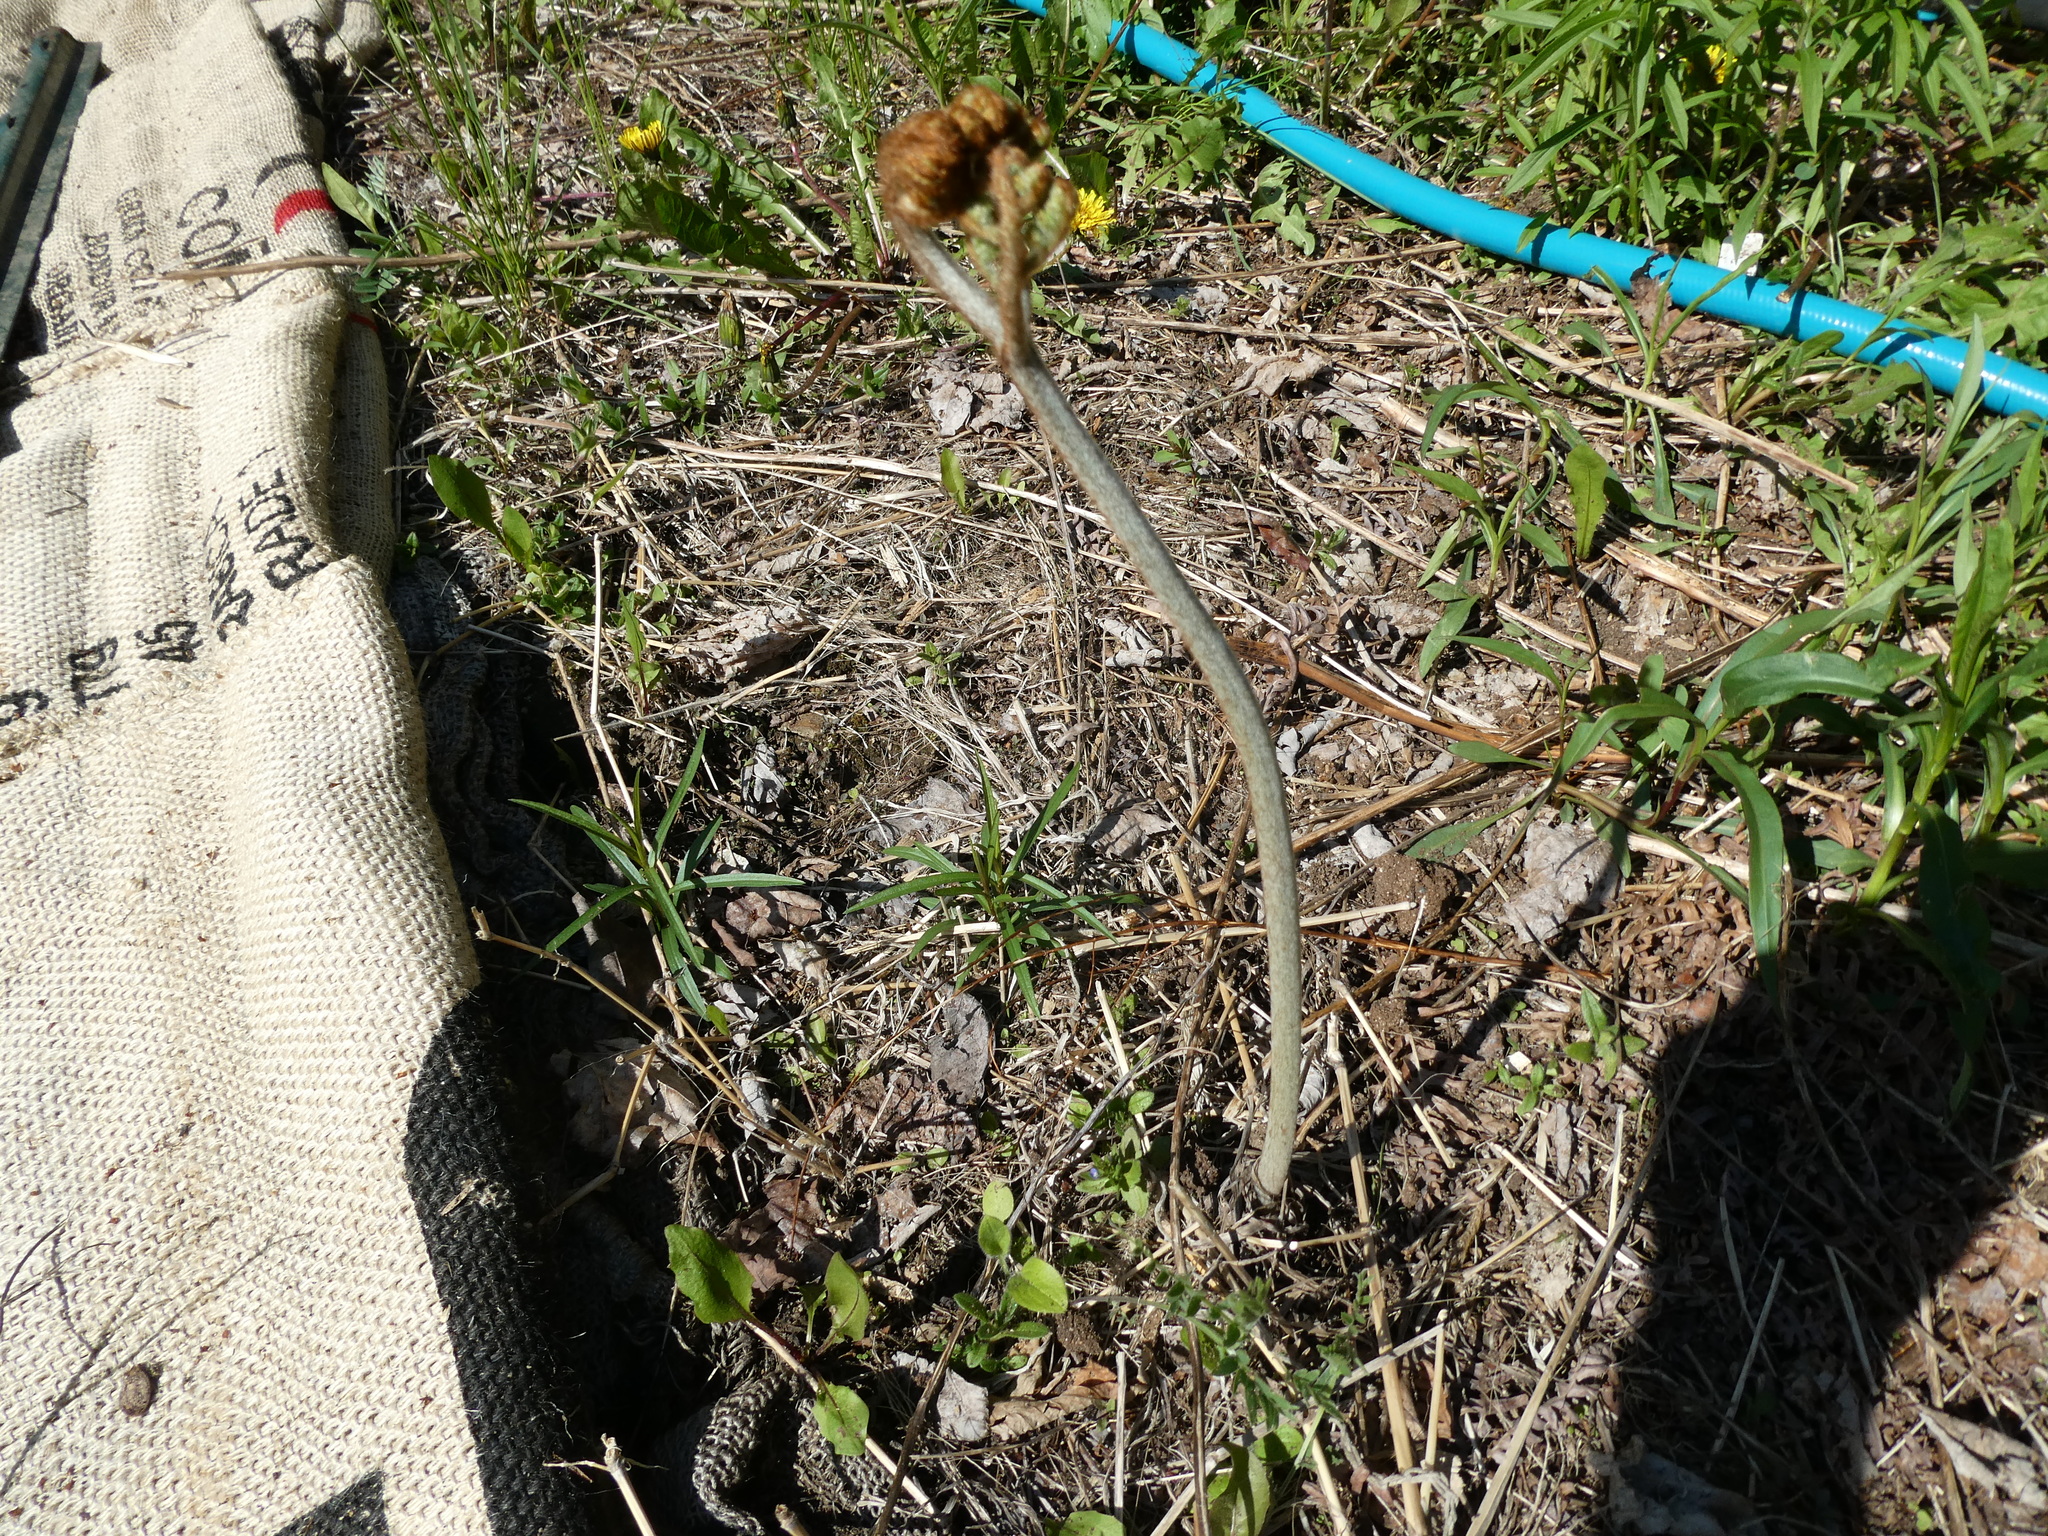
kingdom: Plantae
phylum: Tracheophyta
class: Polypodiopsida
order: Polypodiales
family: Dennstaedtiaceae
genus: Pteridium
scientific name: Pteridium aquilinum
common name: Bracken
